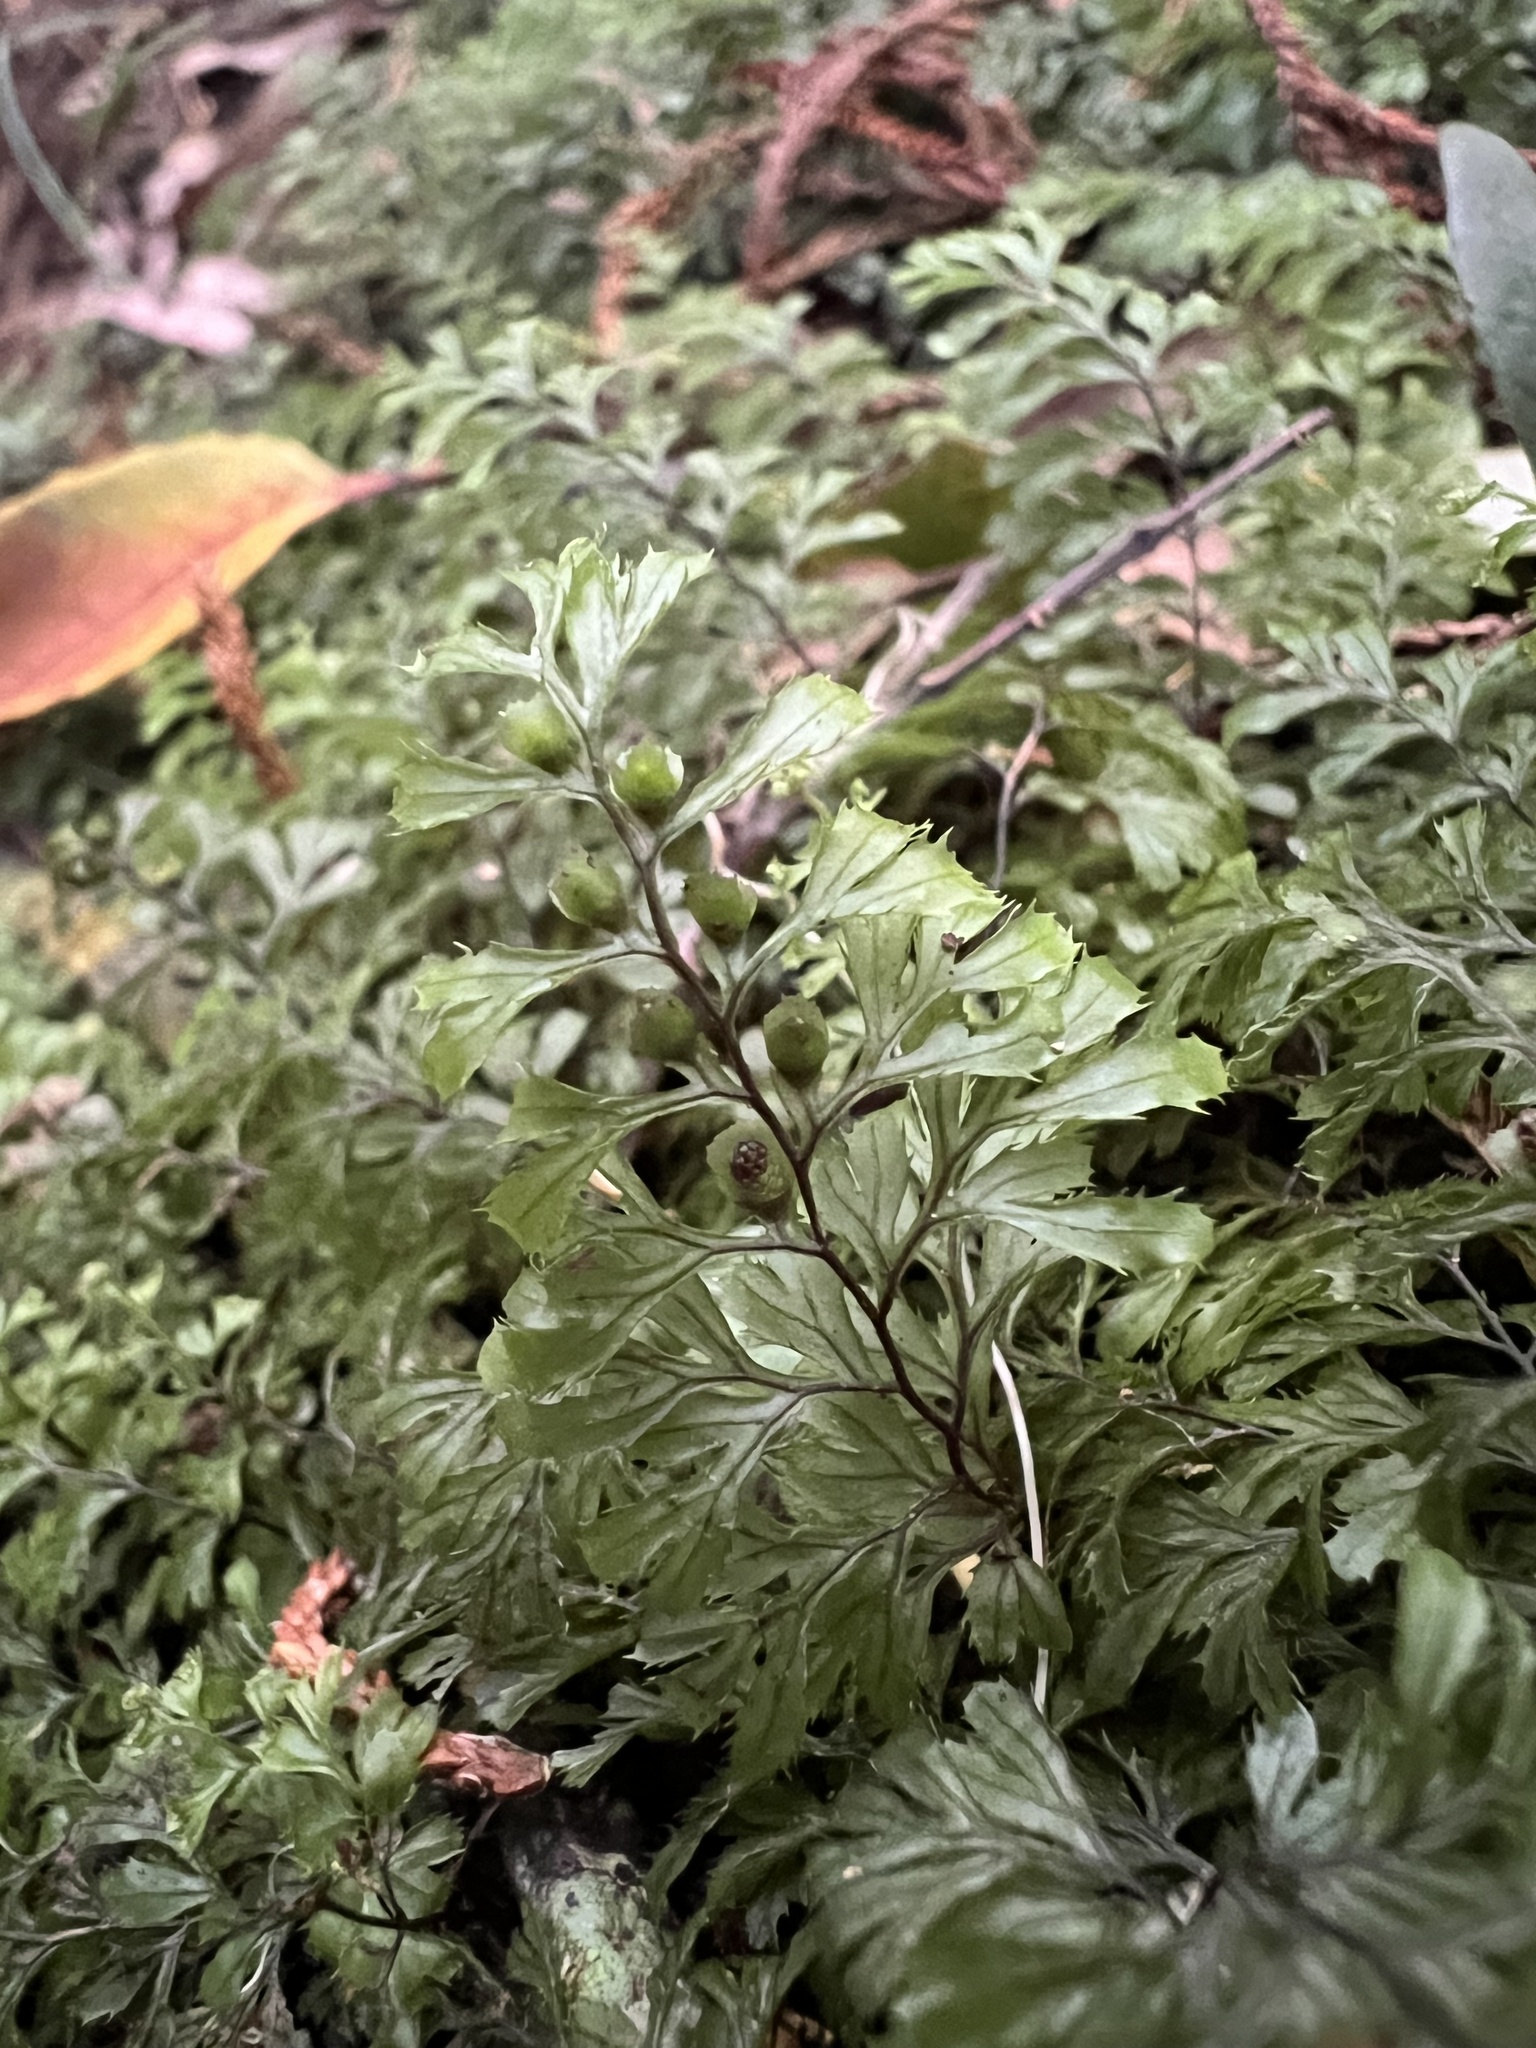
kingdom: Plantae
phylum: Tracheophyta
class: Polypodiopsida
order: Hymenophyllales
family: Hymenophyllaceae
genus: Hymenophyllum
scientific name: Hymenophyllum revolutum
